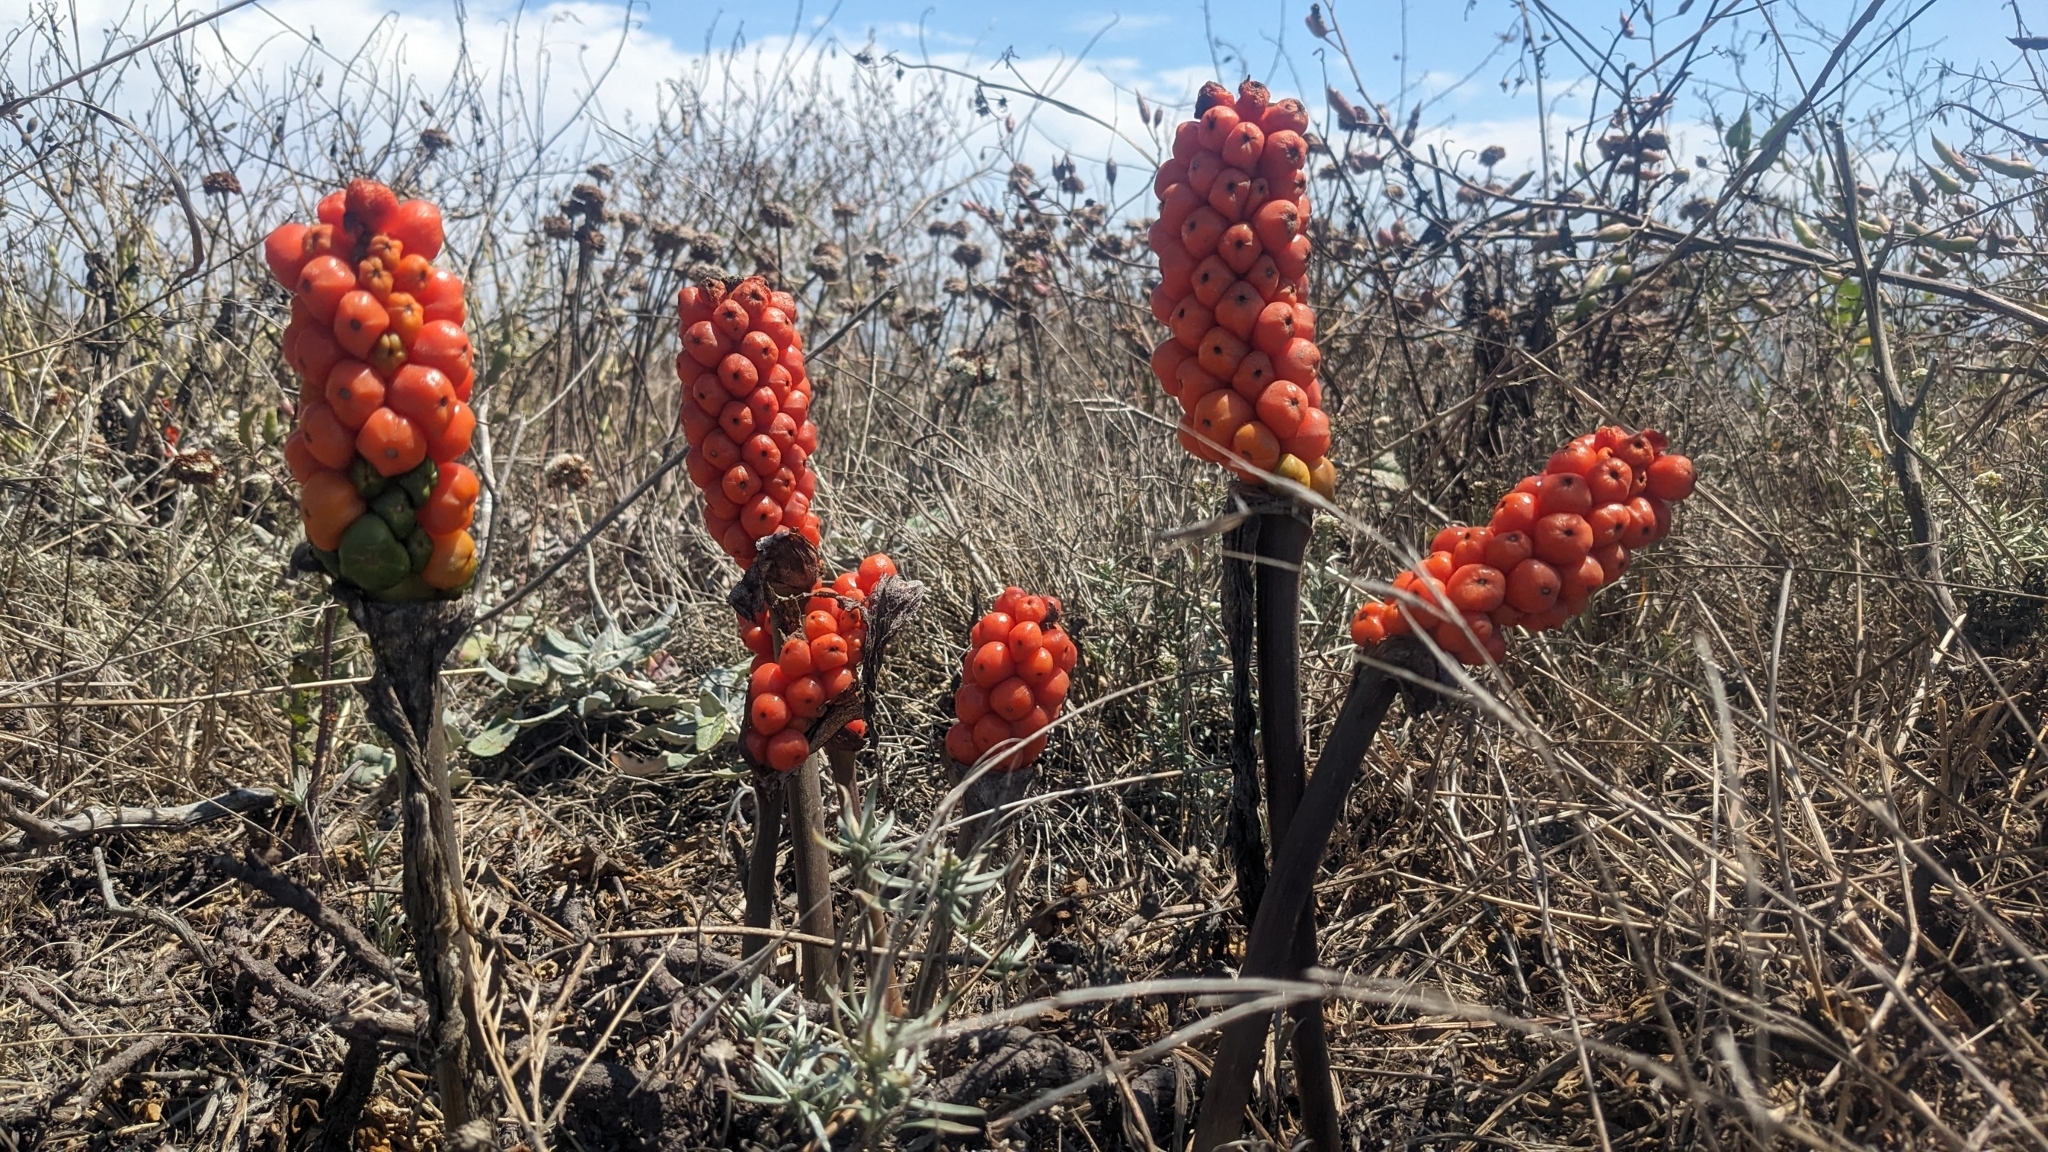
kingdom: Plantae
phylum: Tracheophyta
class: Liliopsida
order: Alismatales
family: Araceae
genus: Arum
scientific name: Arum italicum
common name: Italian lords-and-ladies
